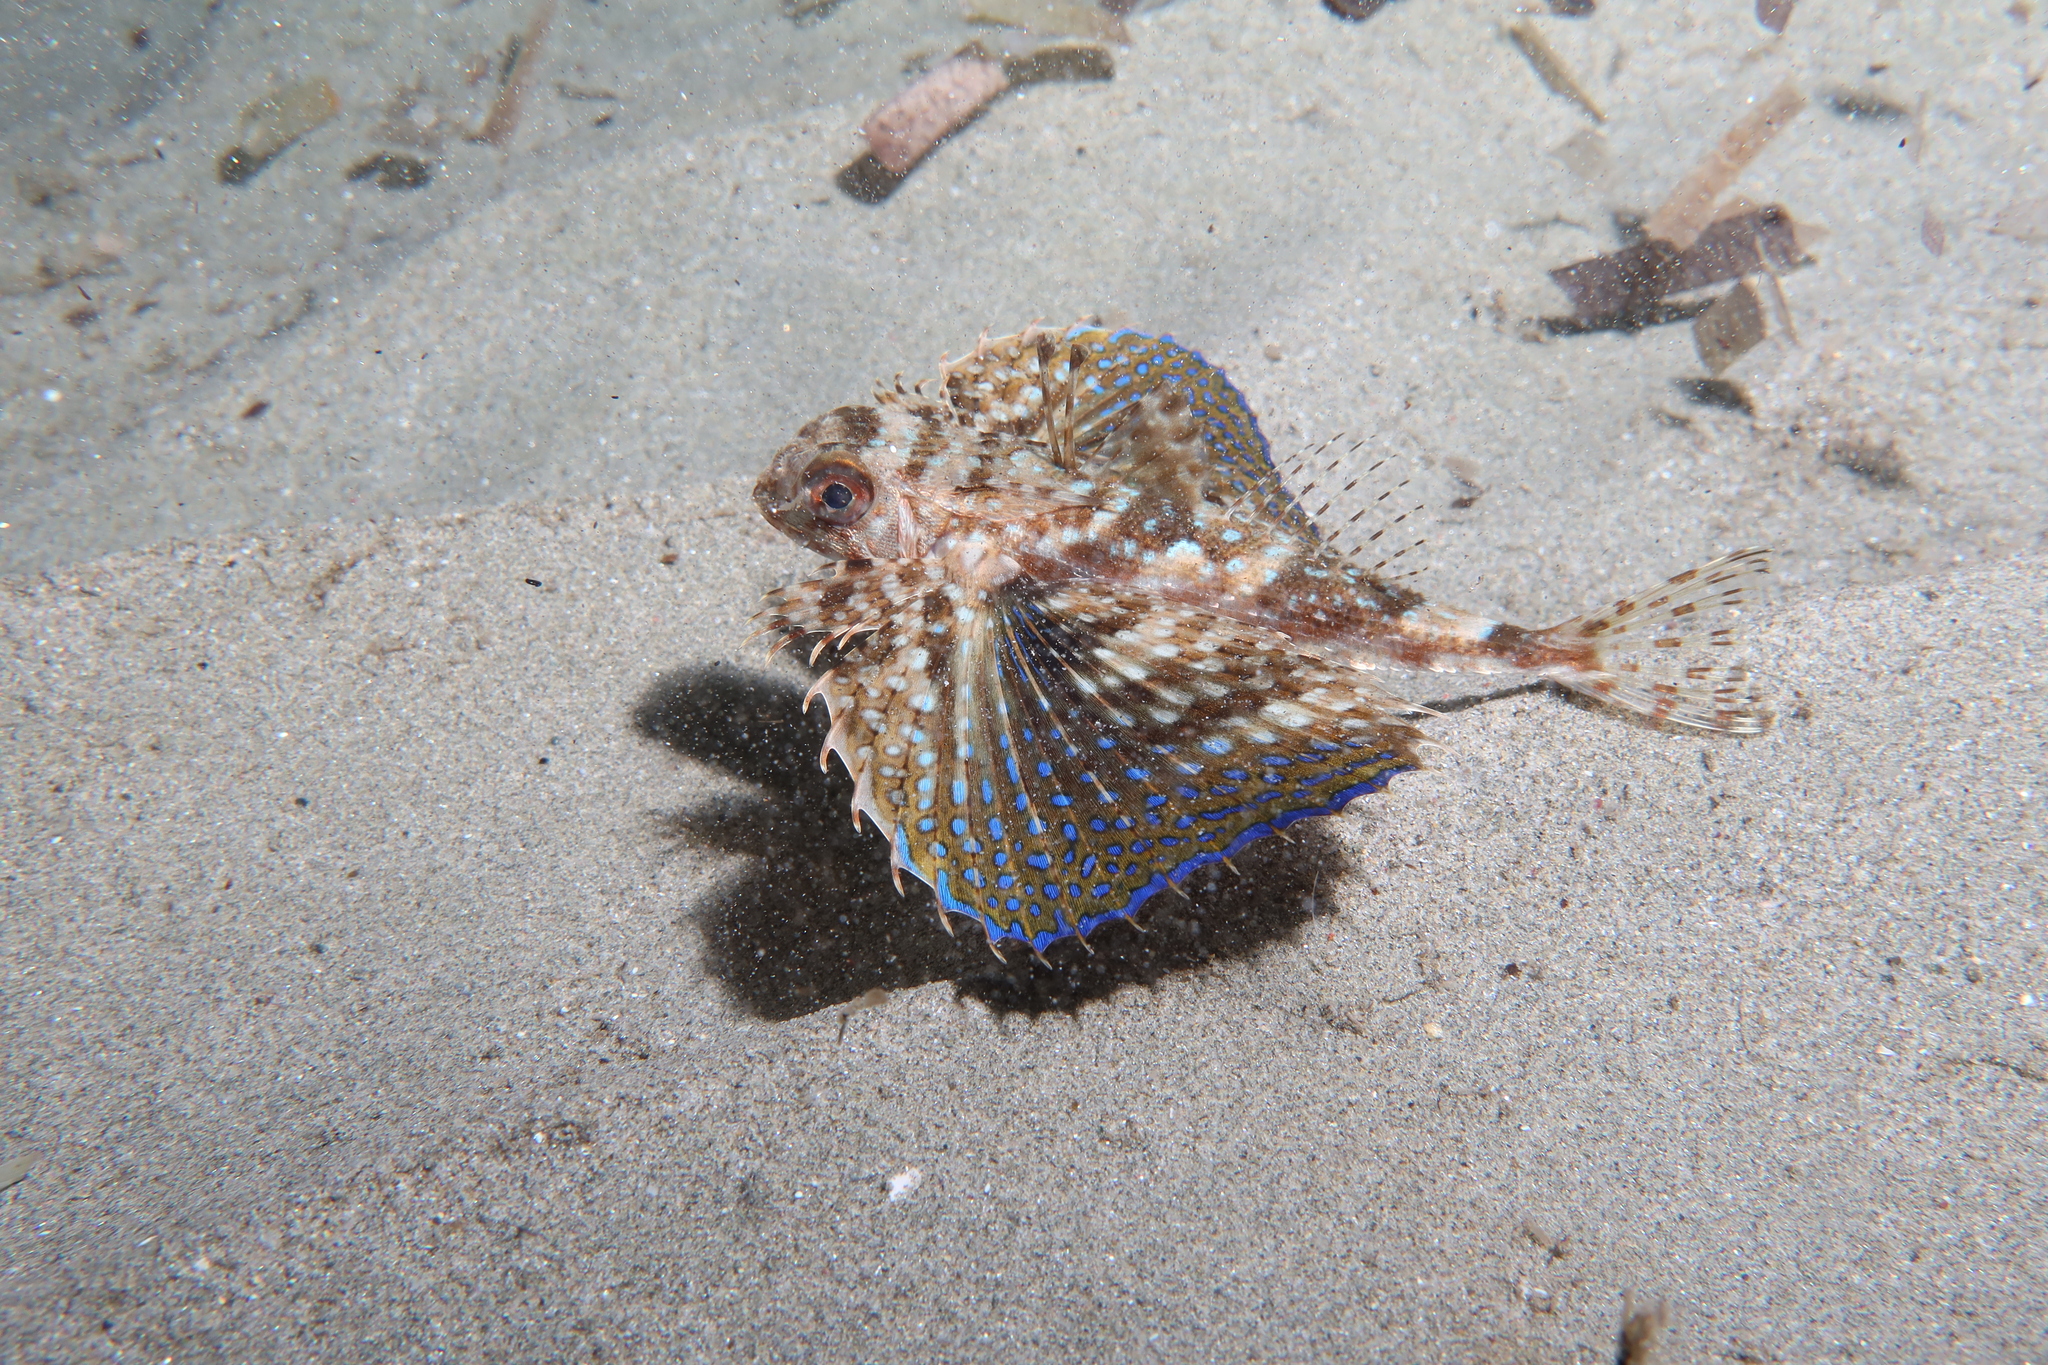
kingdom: Animalia
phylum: Chordata
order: Scorpaeniformes
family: Dactylopteridae
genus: Dactylopterus
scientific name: Dactylopterus volitans
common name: Flying gurnard
